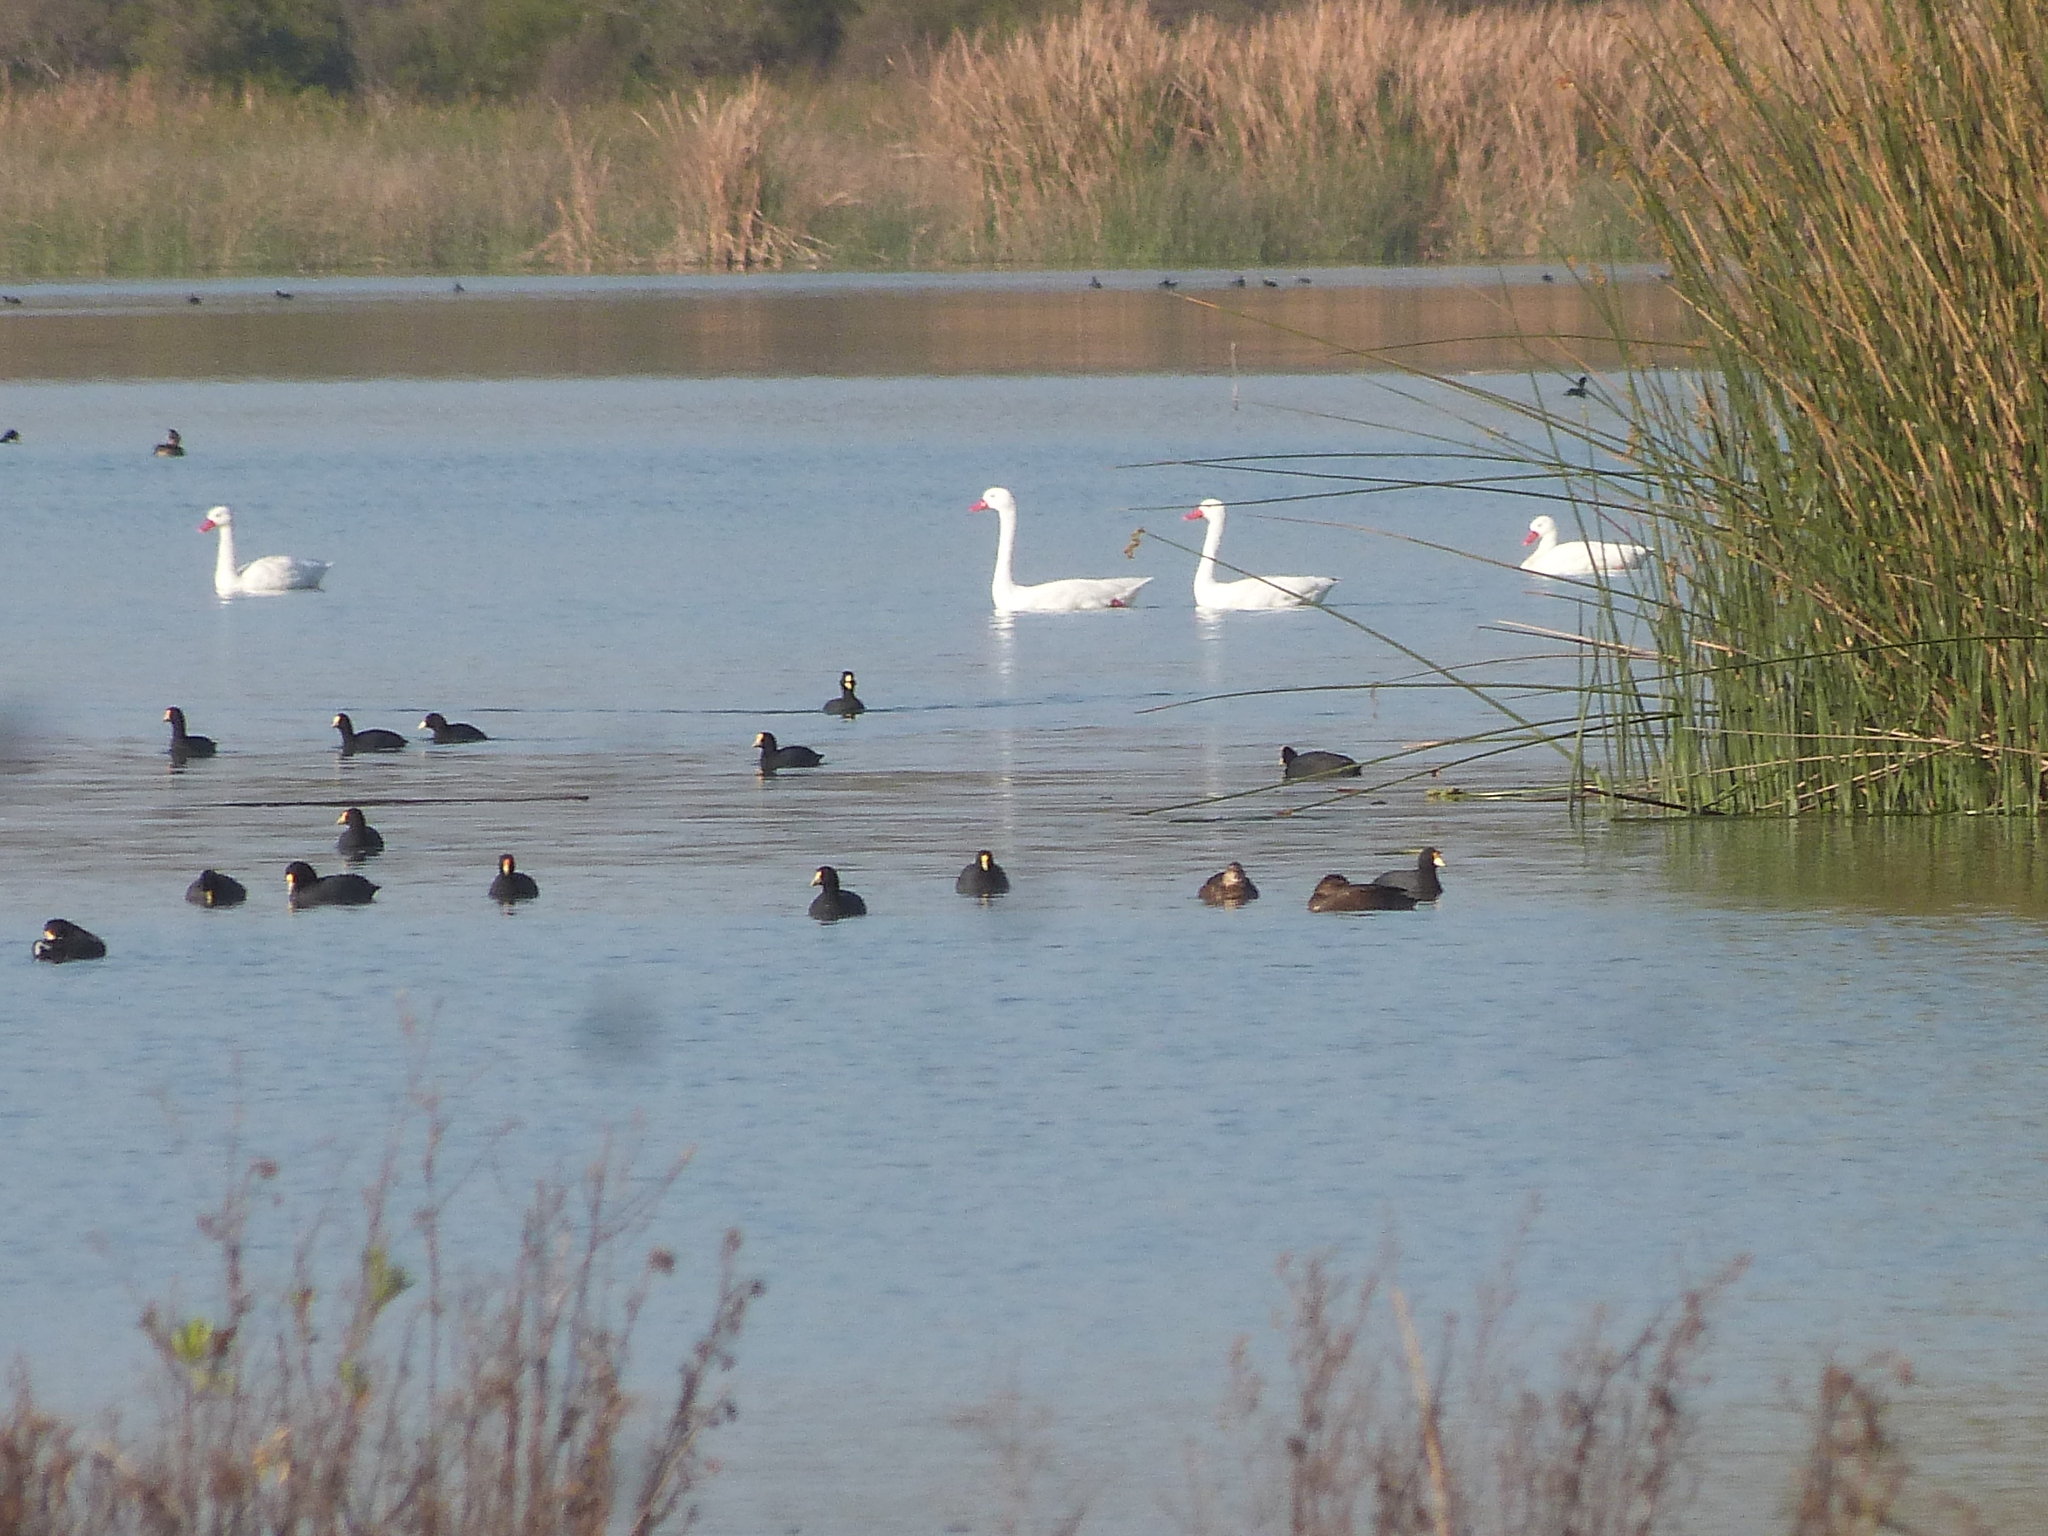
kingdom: Animalia
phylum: Chordata
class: Aves
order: Anseriformes
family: Anatidae
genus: Coscoroba
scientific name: Coscoroba coscoroba
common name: Coscoroba swan
